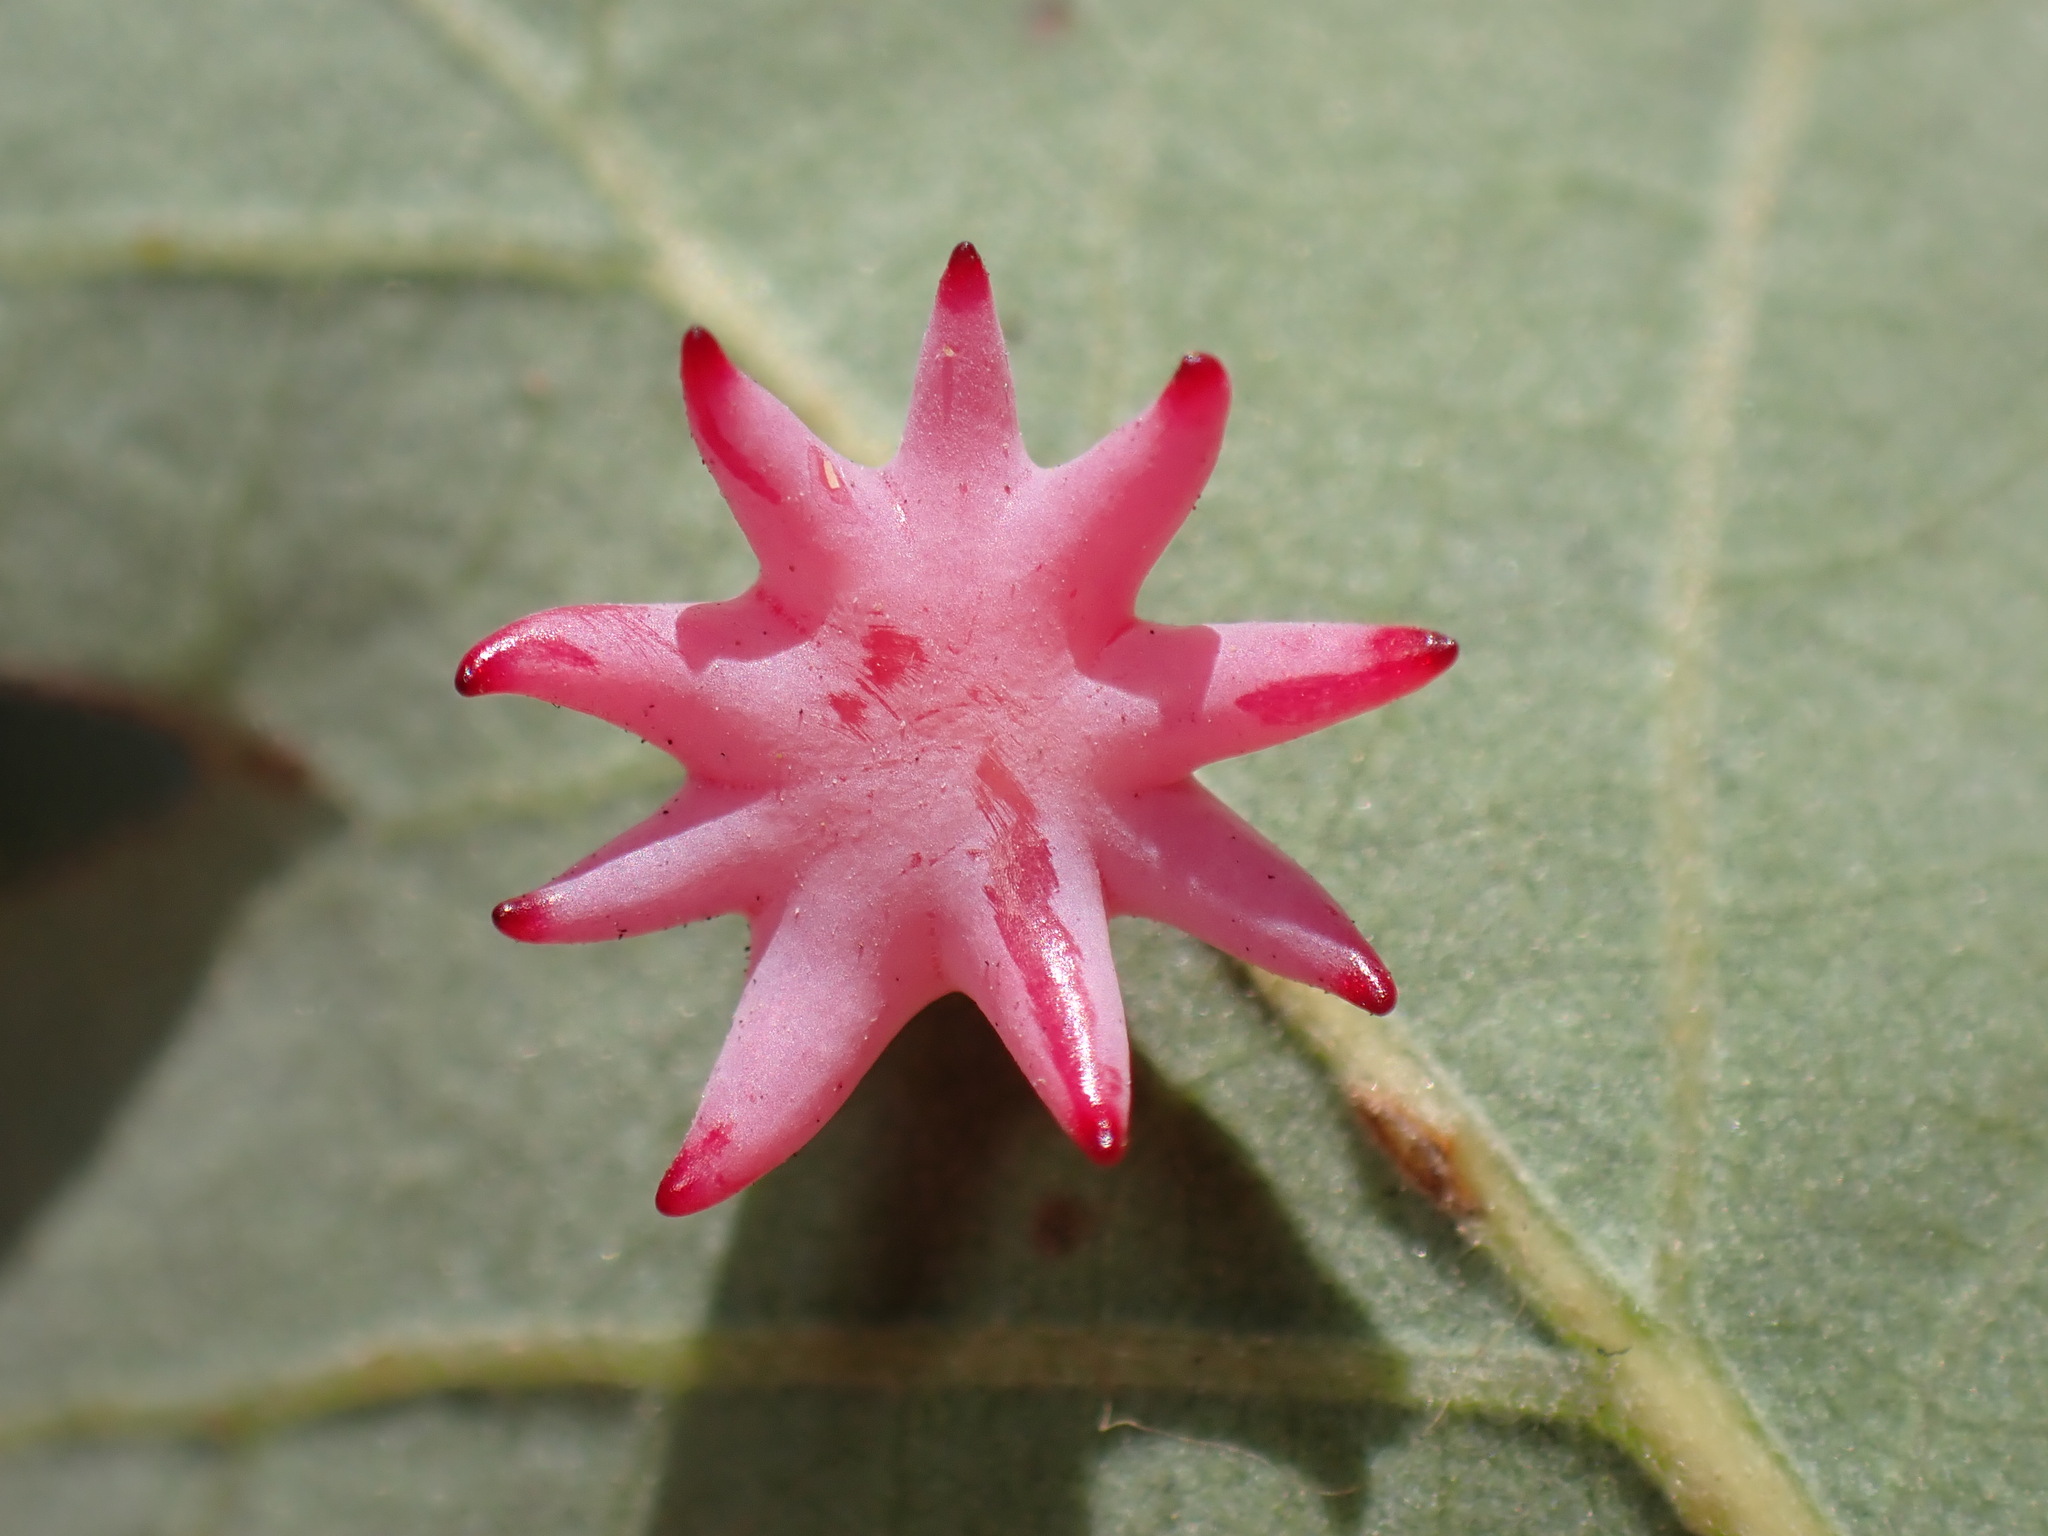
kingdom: Animalia
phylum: Arthropoda
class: Insecta
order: Hymenoptera
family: Cynipidae
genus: Cynips
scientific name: Cynips douglasi
